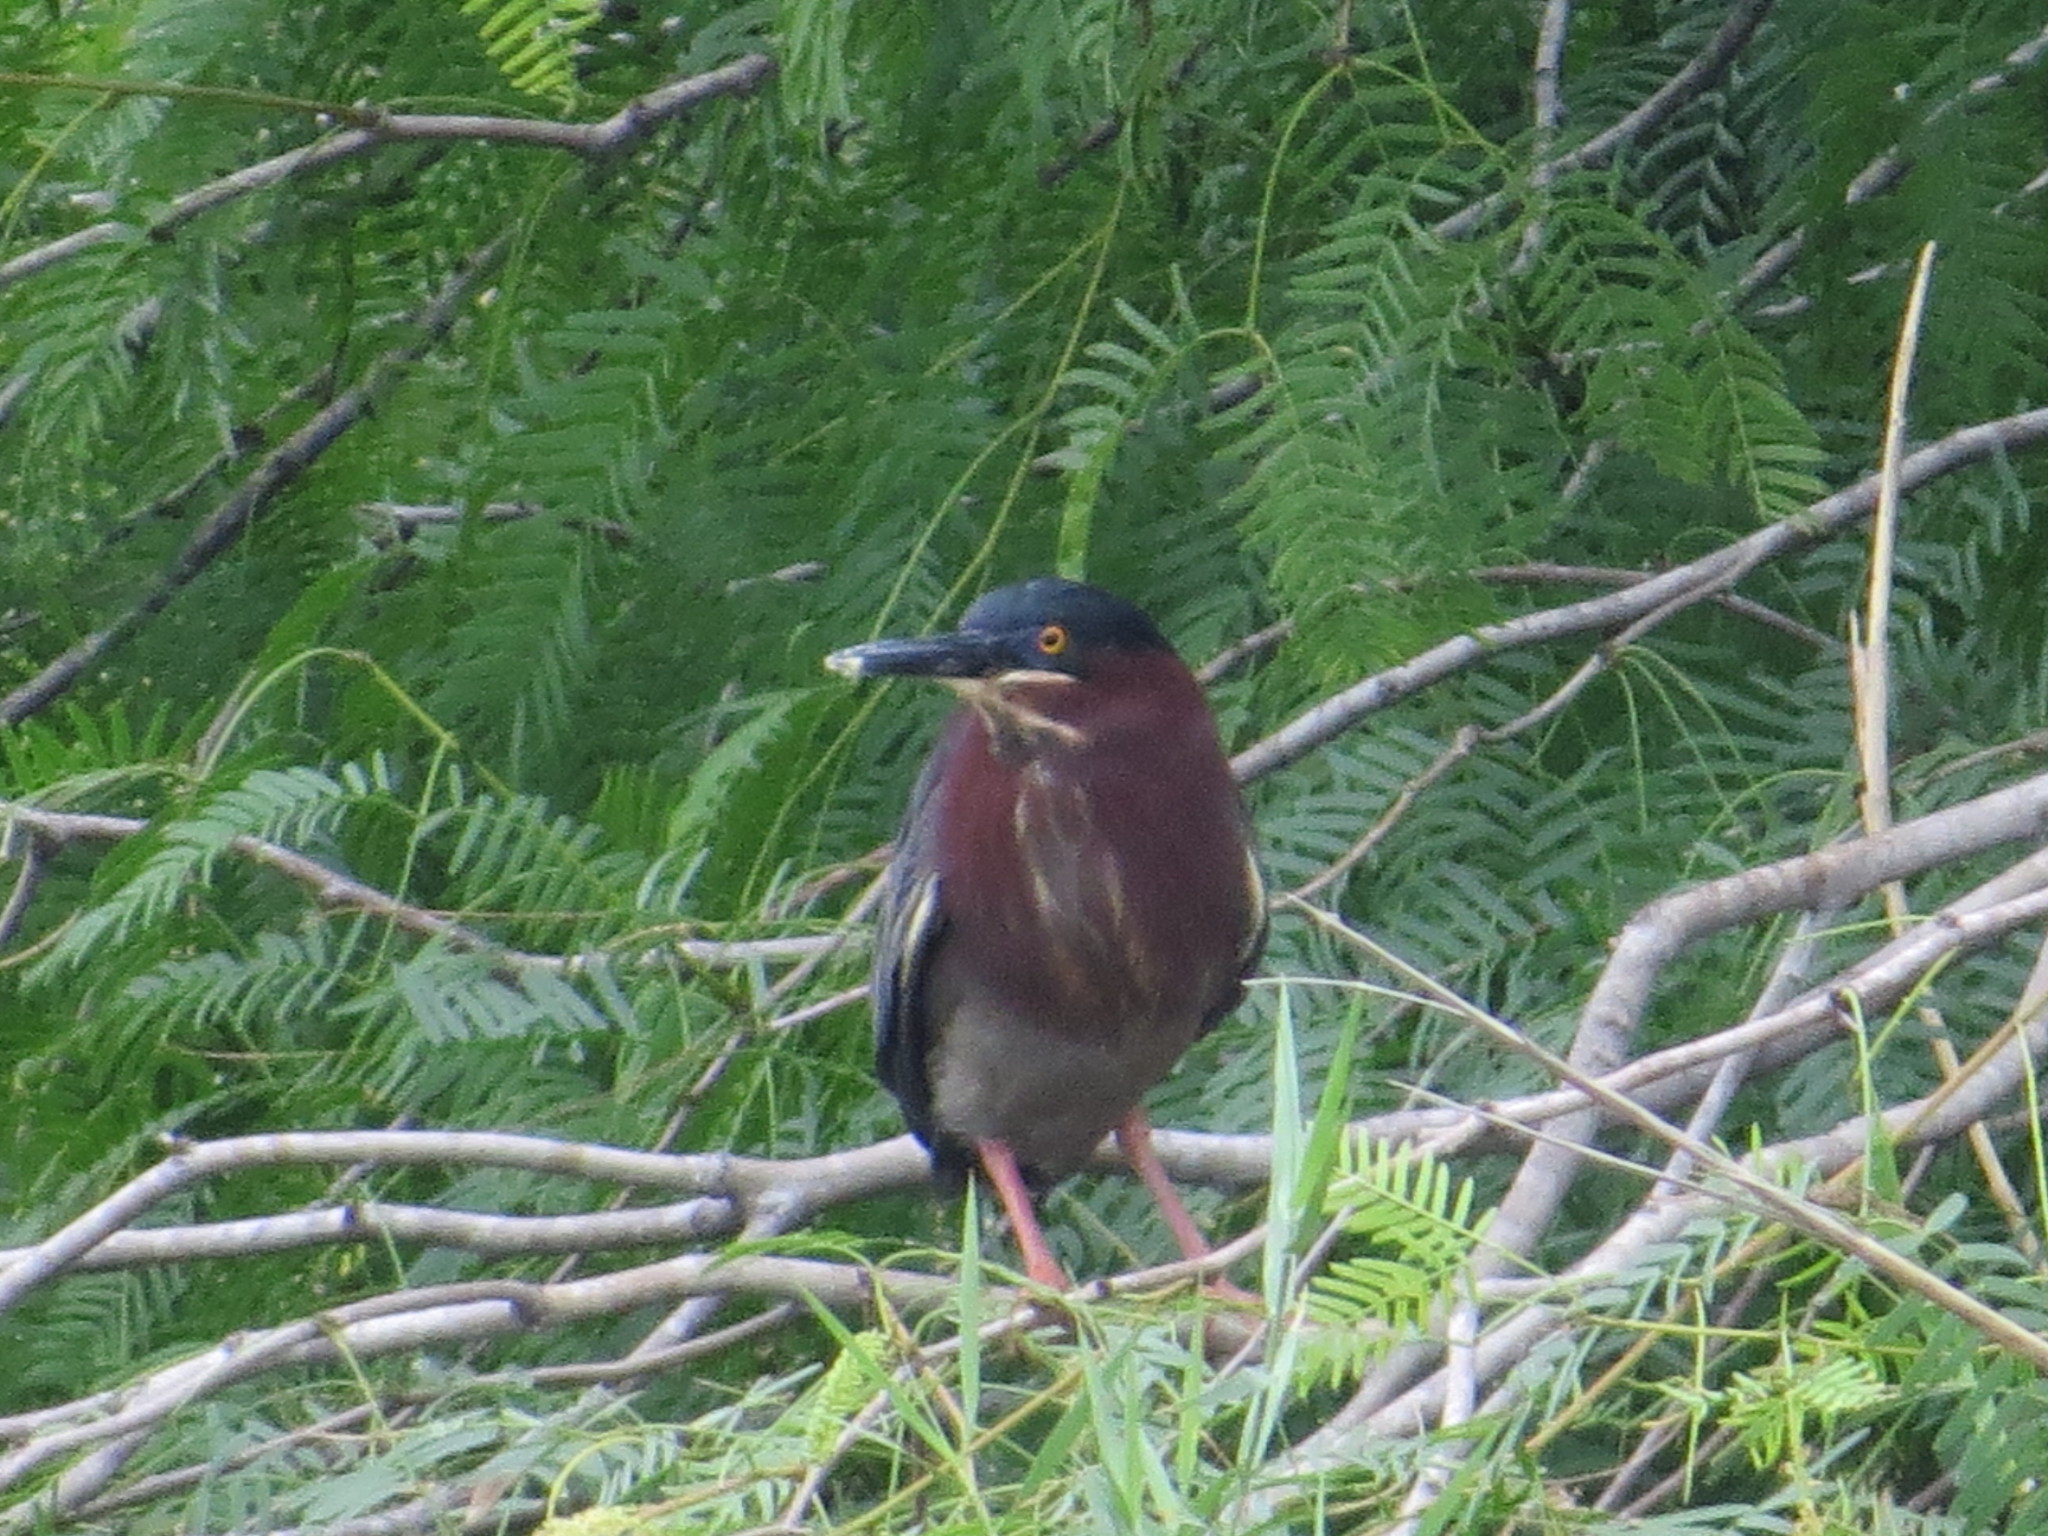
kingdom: Animalia
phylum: Chordata
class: Aves
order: Pelecaniformes
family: Ardeidae
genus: Butorides
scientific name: Butorides virescens
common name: Green heron
